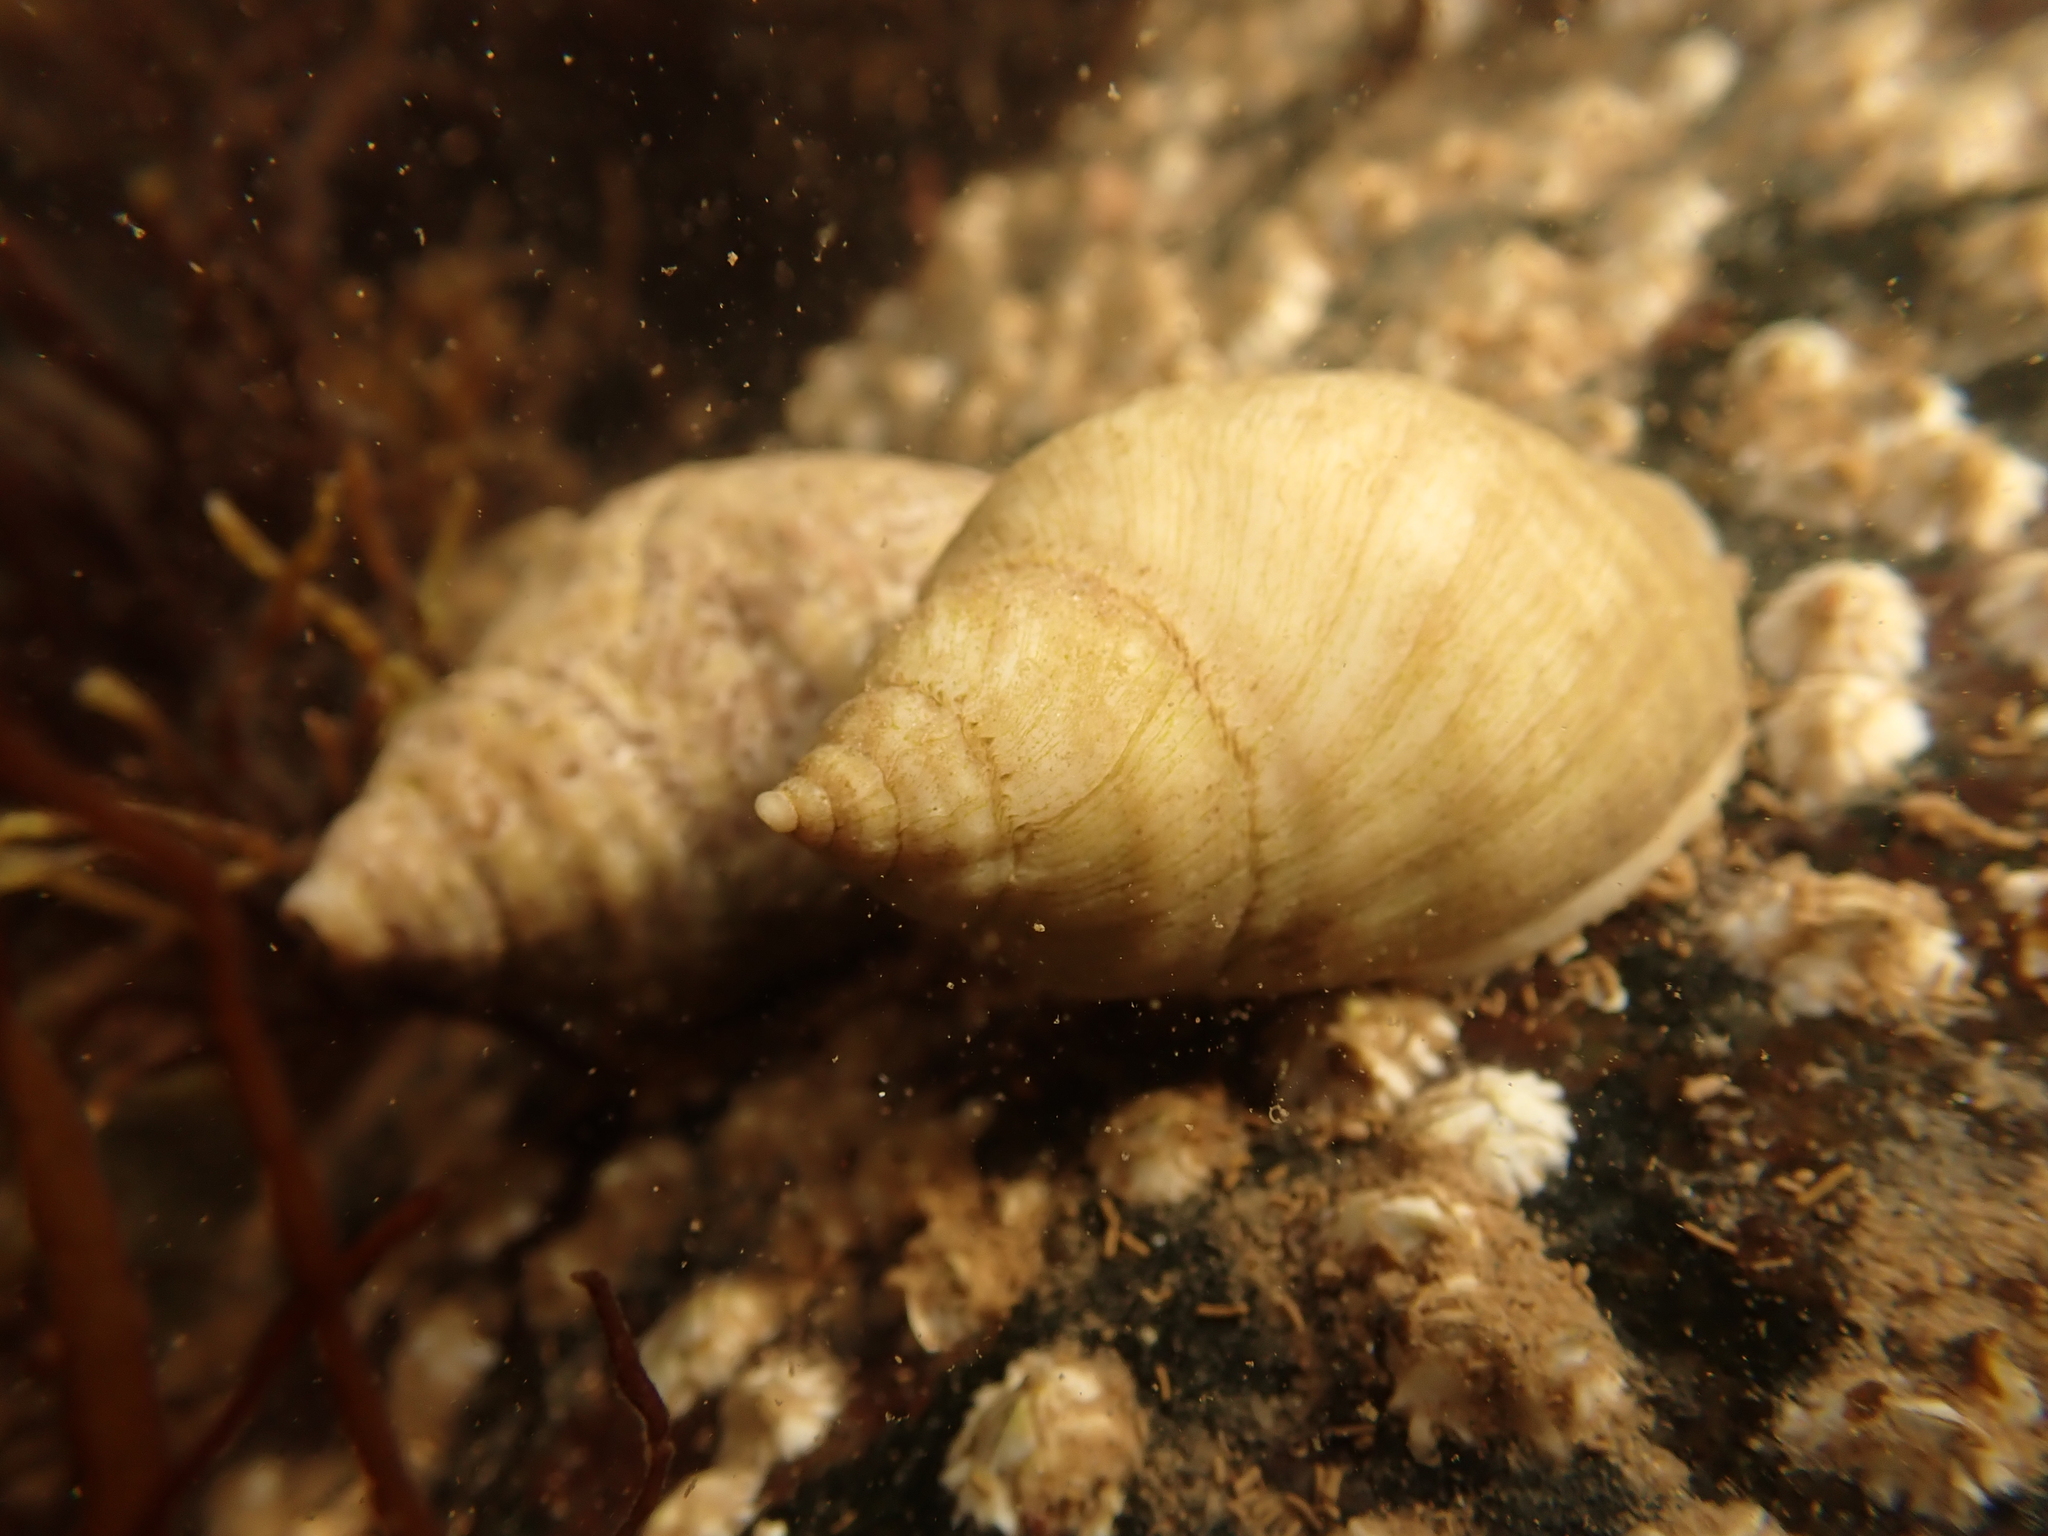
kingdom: Animalia
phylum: Mollusca
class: Gastropoda
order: Neogastropoda
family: Muricidae
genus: Nucella
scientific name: Nucella lapillus
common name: Dog whelk
